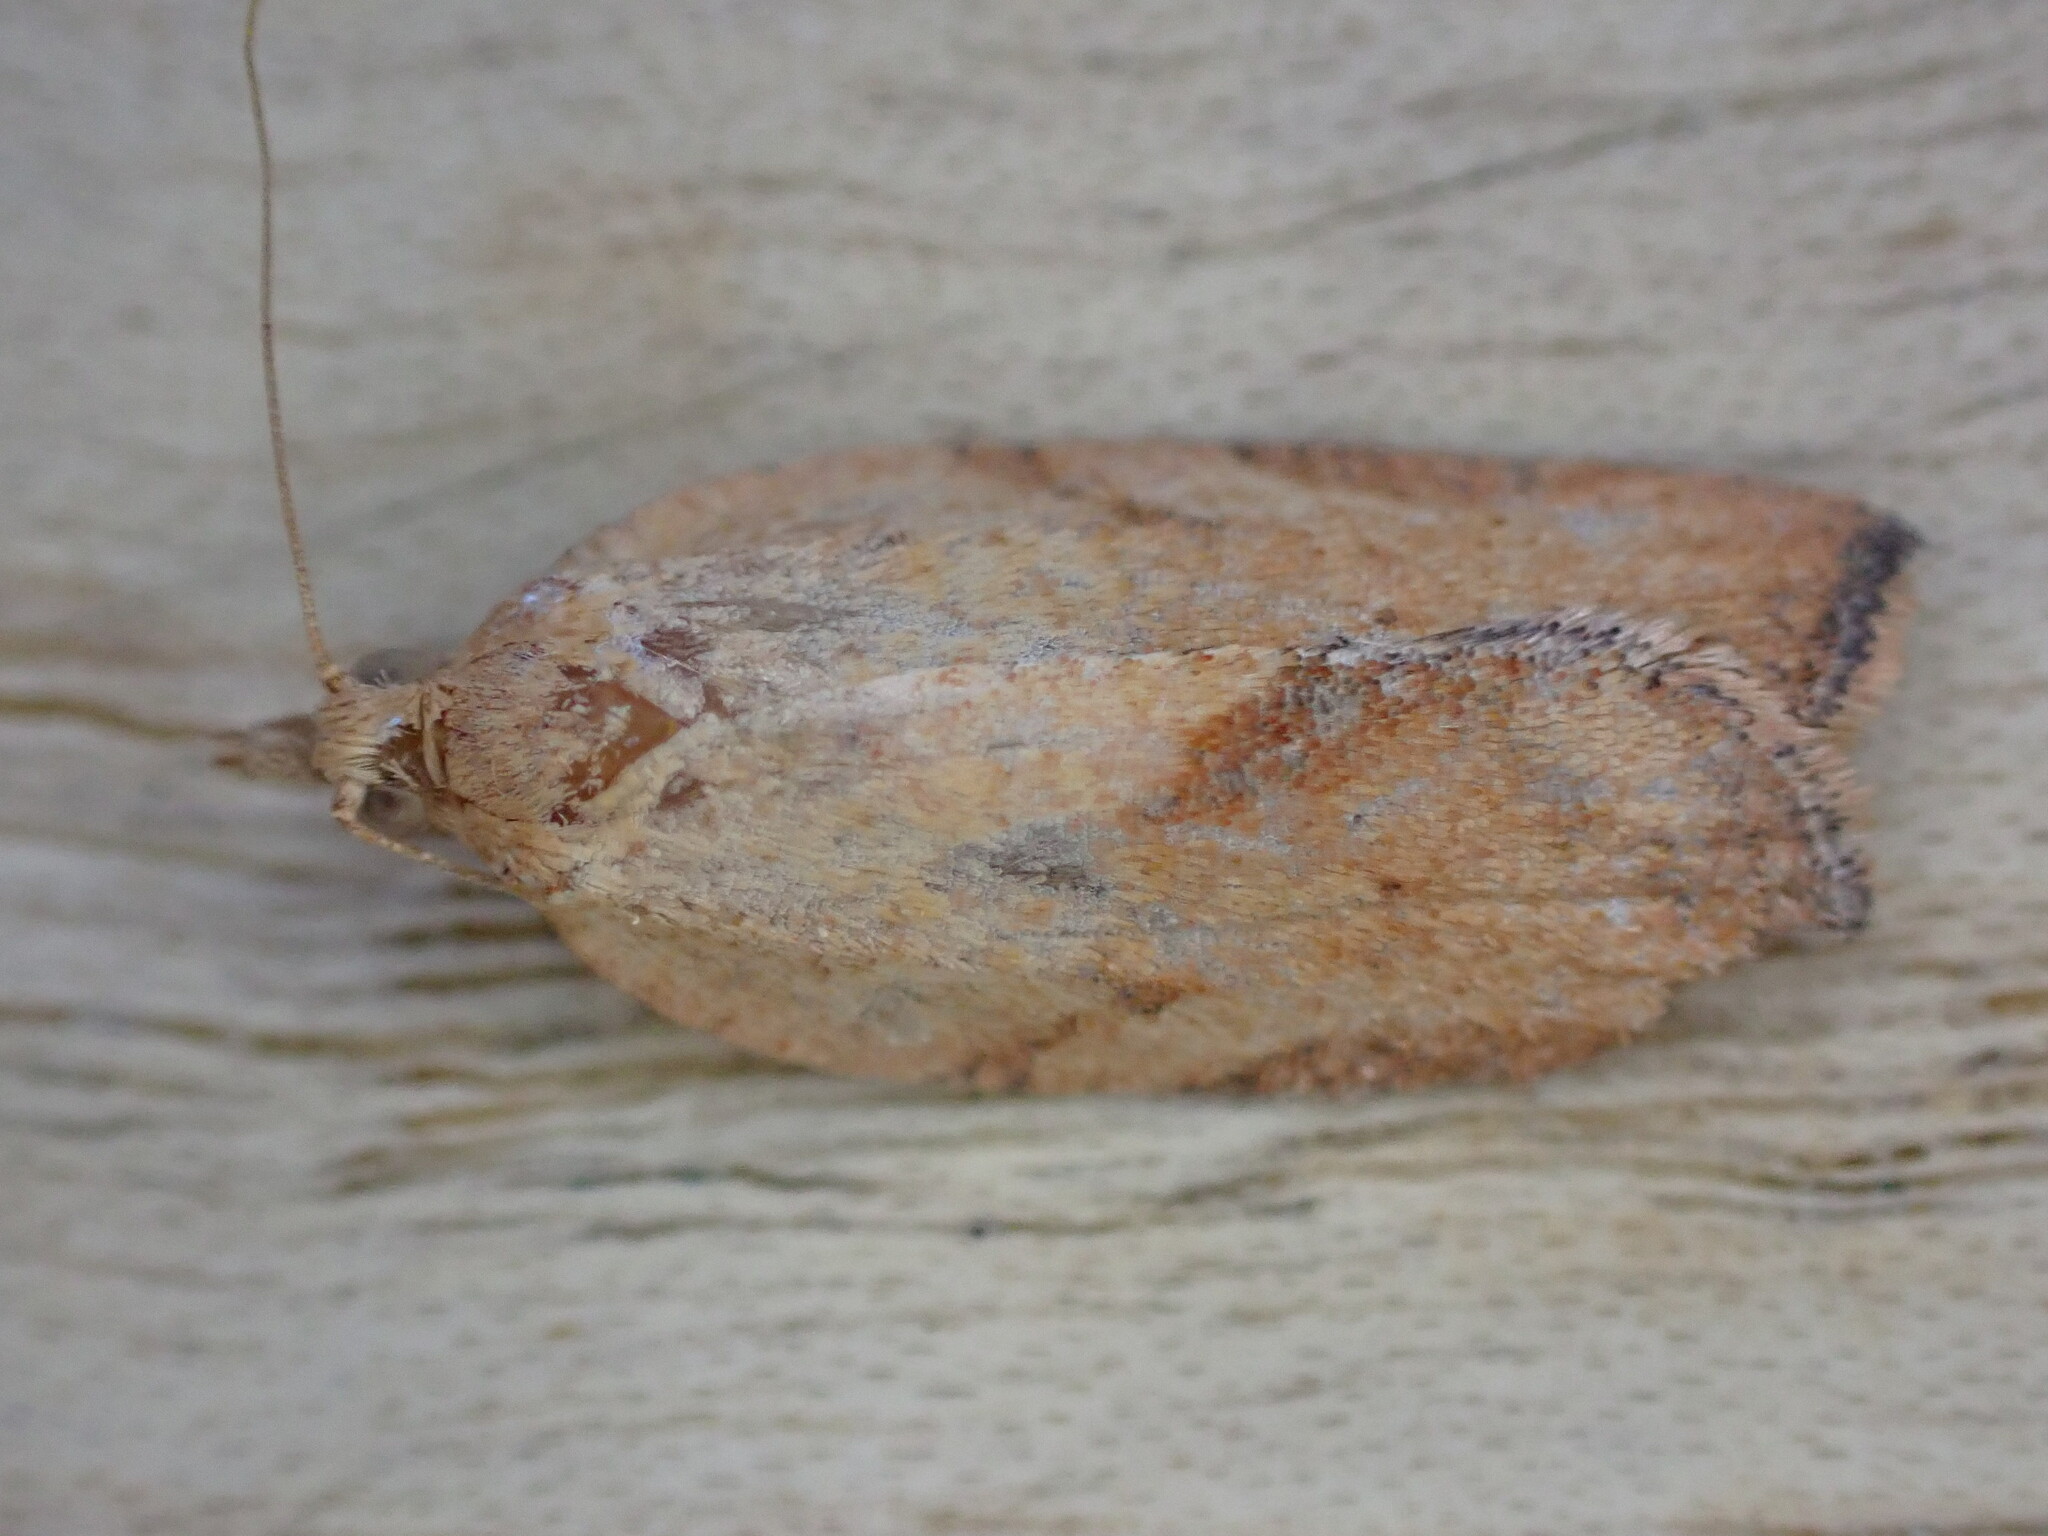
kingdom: Animalia
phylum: Arthropoda
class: Insecta
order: Lepidoptera
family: Tortricidae
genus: Epiphyas
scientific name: Epiphyas postvittana
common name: Light brown apple moth
